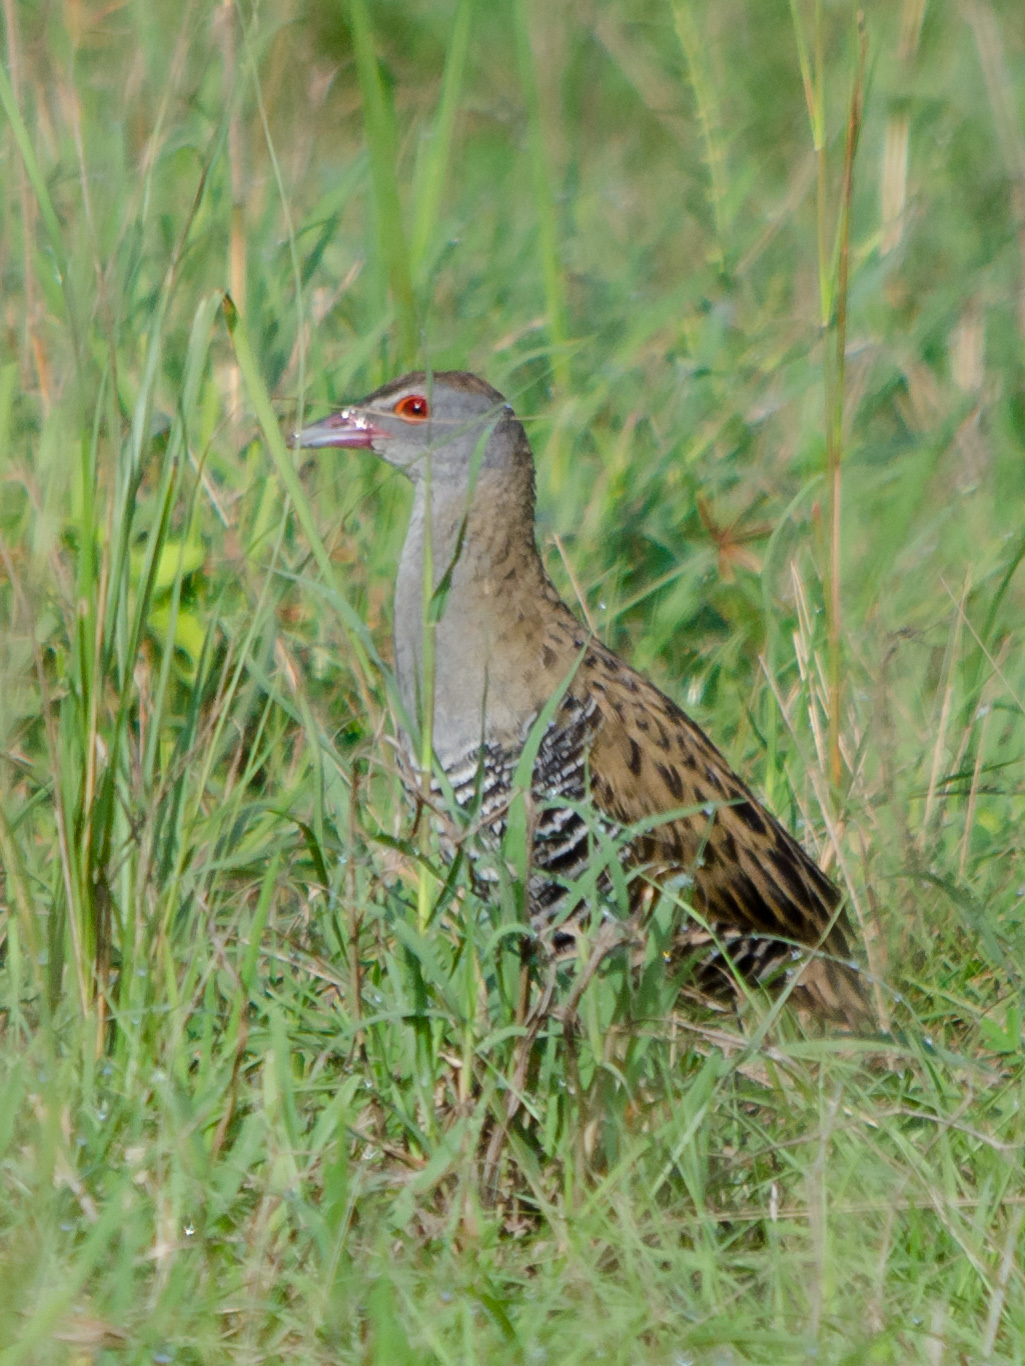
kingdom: Animalia
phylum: Chordata
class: Aves
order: Gruiformes
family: Rallidae
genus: Crex
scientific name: Crex egregia
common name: African crake
